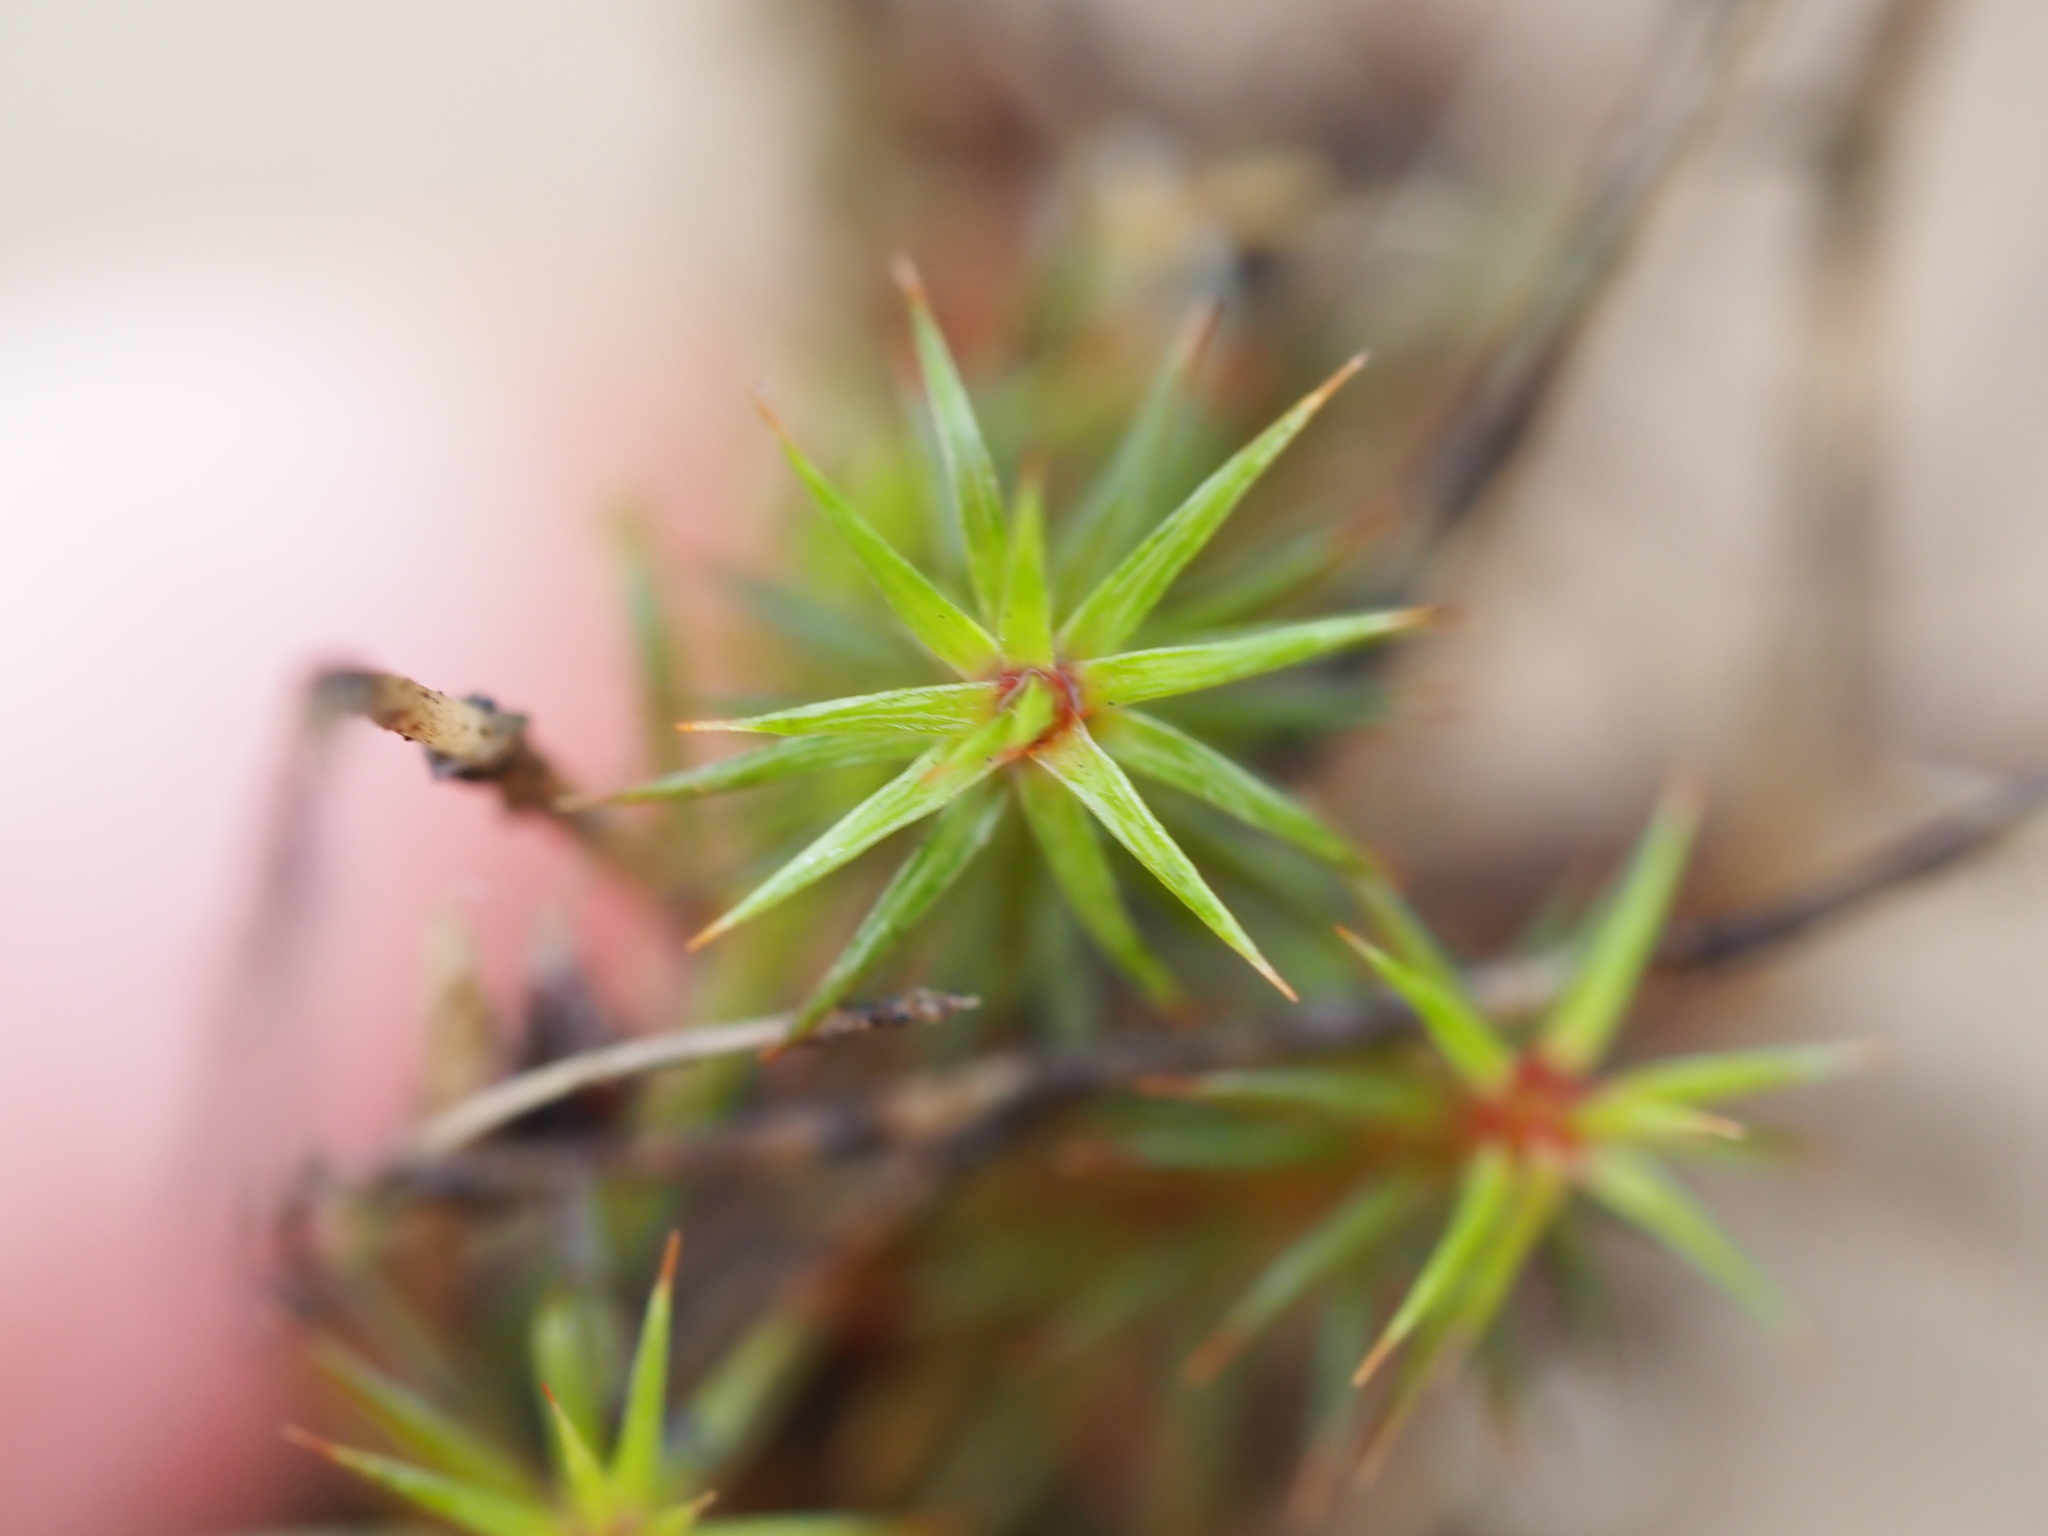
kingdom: Plantae
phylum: Bryophyta
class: Polytrichopsida
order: Polytrichales
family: Polytrichaceae
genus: Polytrichum
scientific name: Polytrichum juniperinum
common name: Juniper haircap moss
